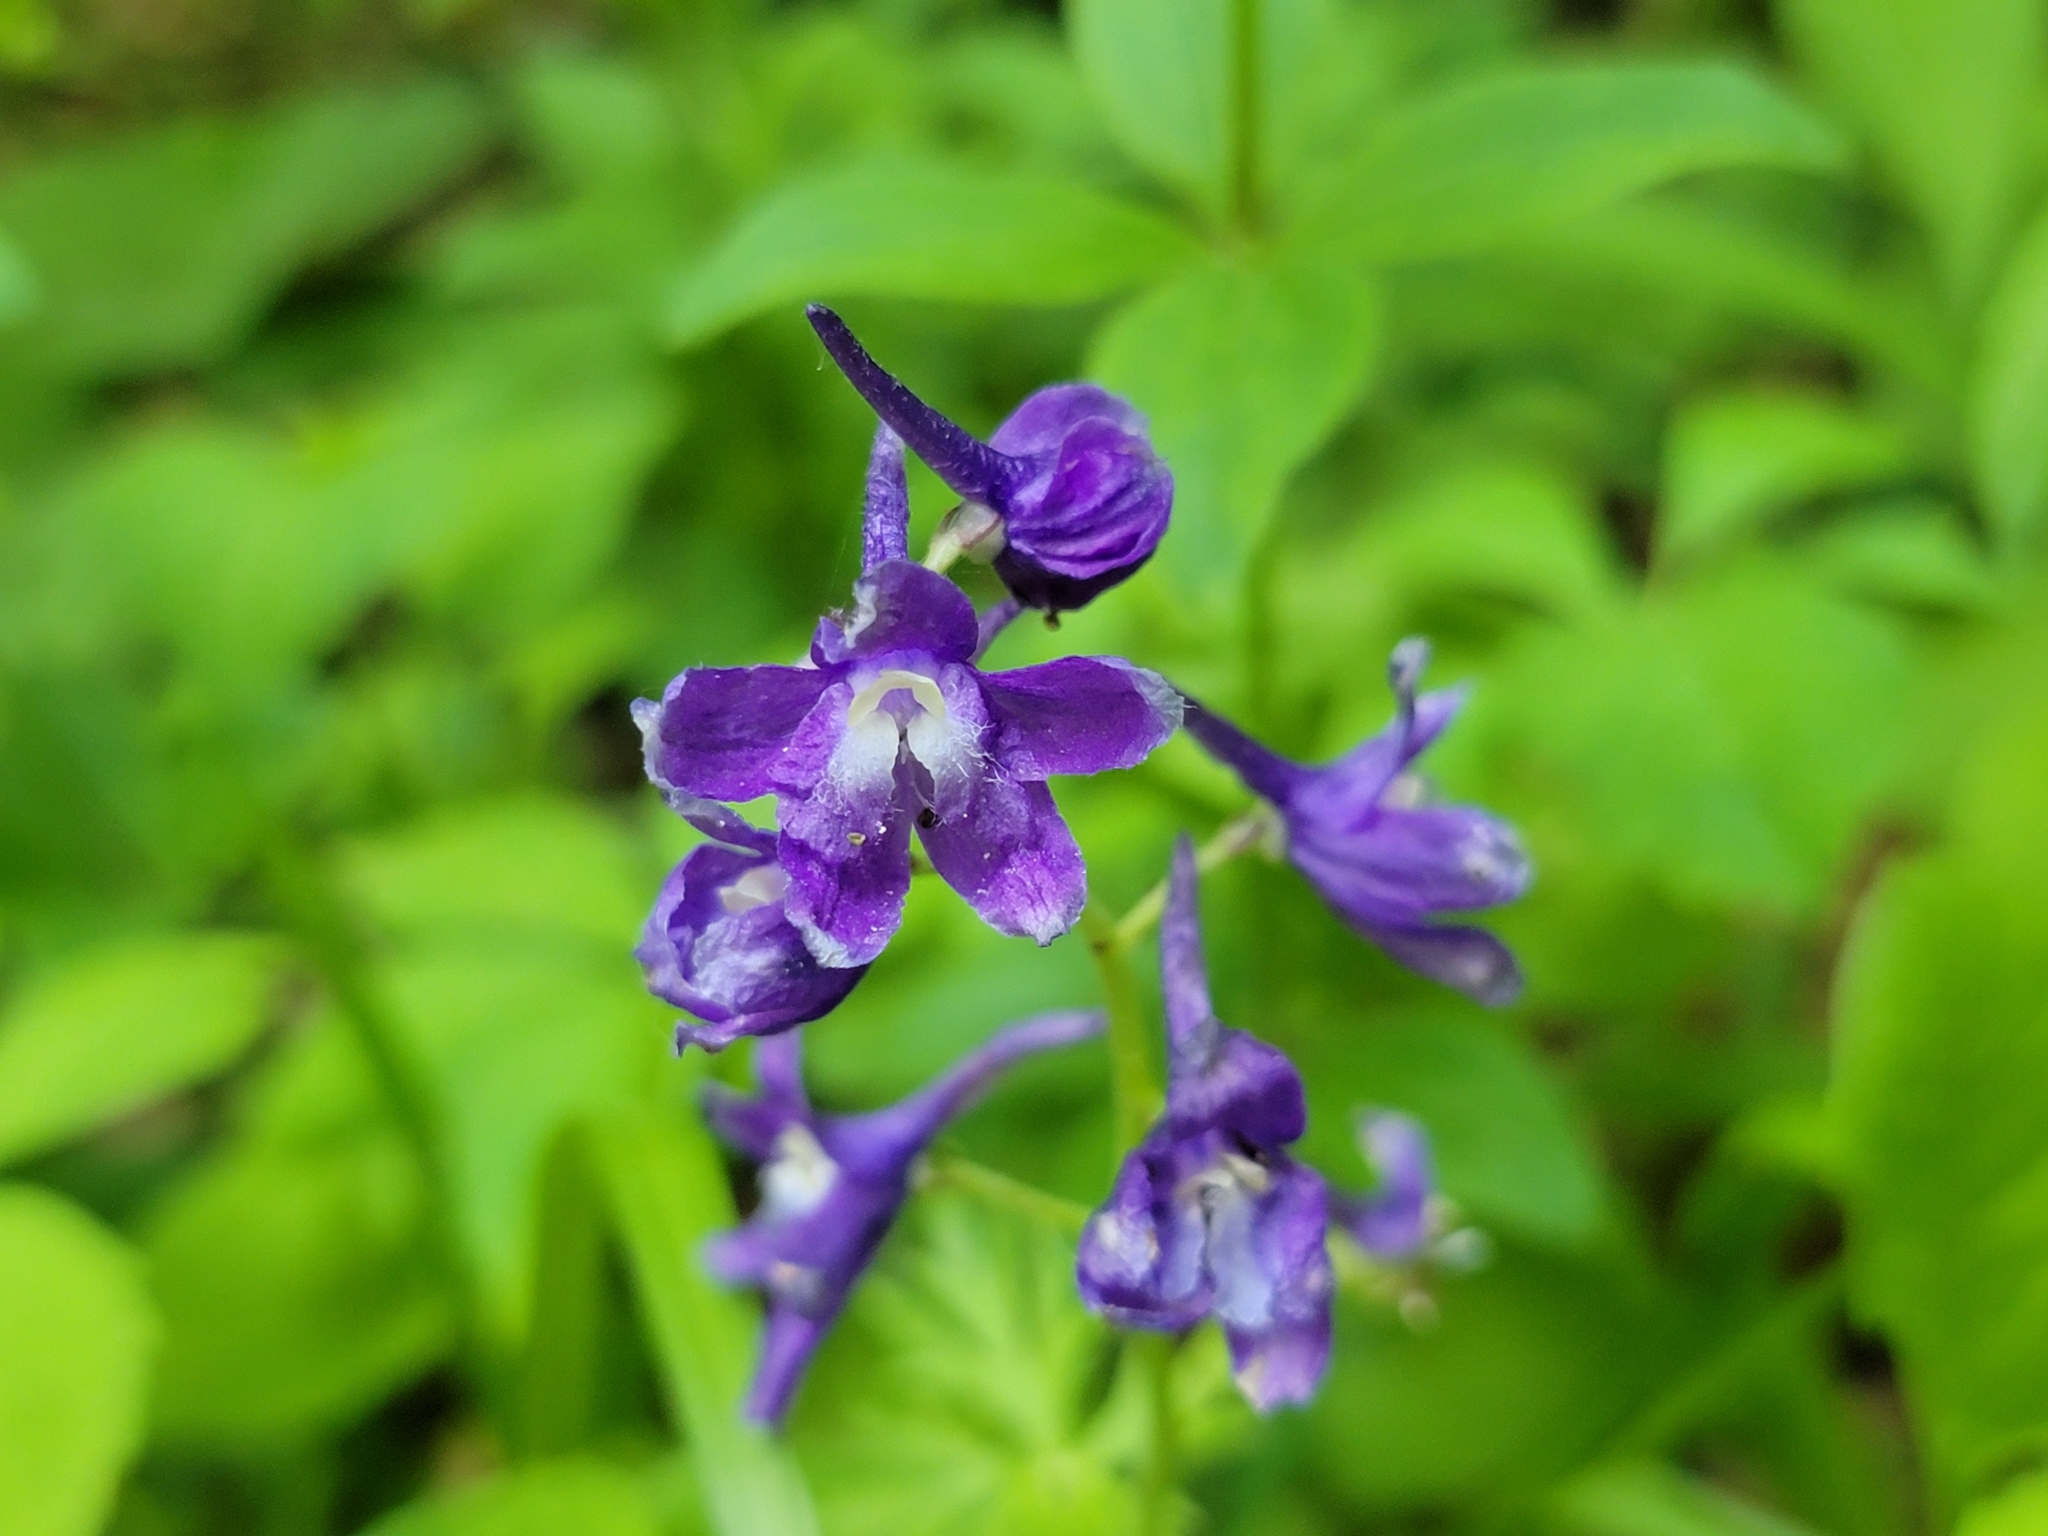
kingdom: Plantae
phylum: Tracheophyta
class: Magnoliopsida
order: Ranunculales
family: Ranunculaceae
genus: Delphinium
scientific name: Delphinium tricorne
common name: Dwarf larkspur
